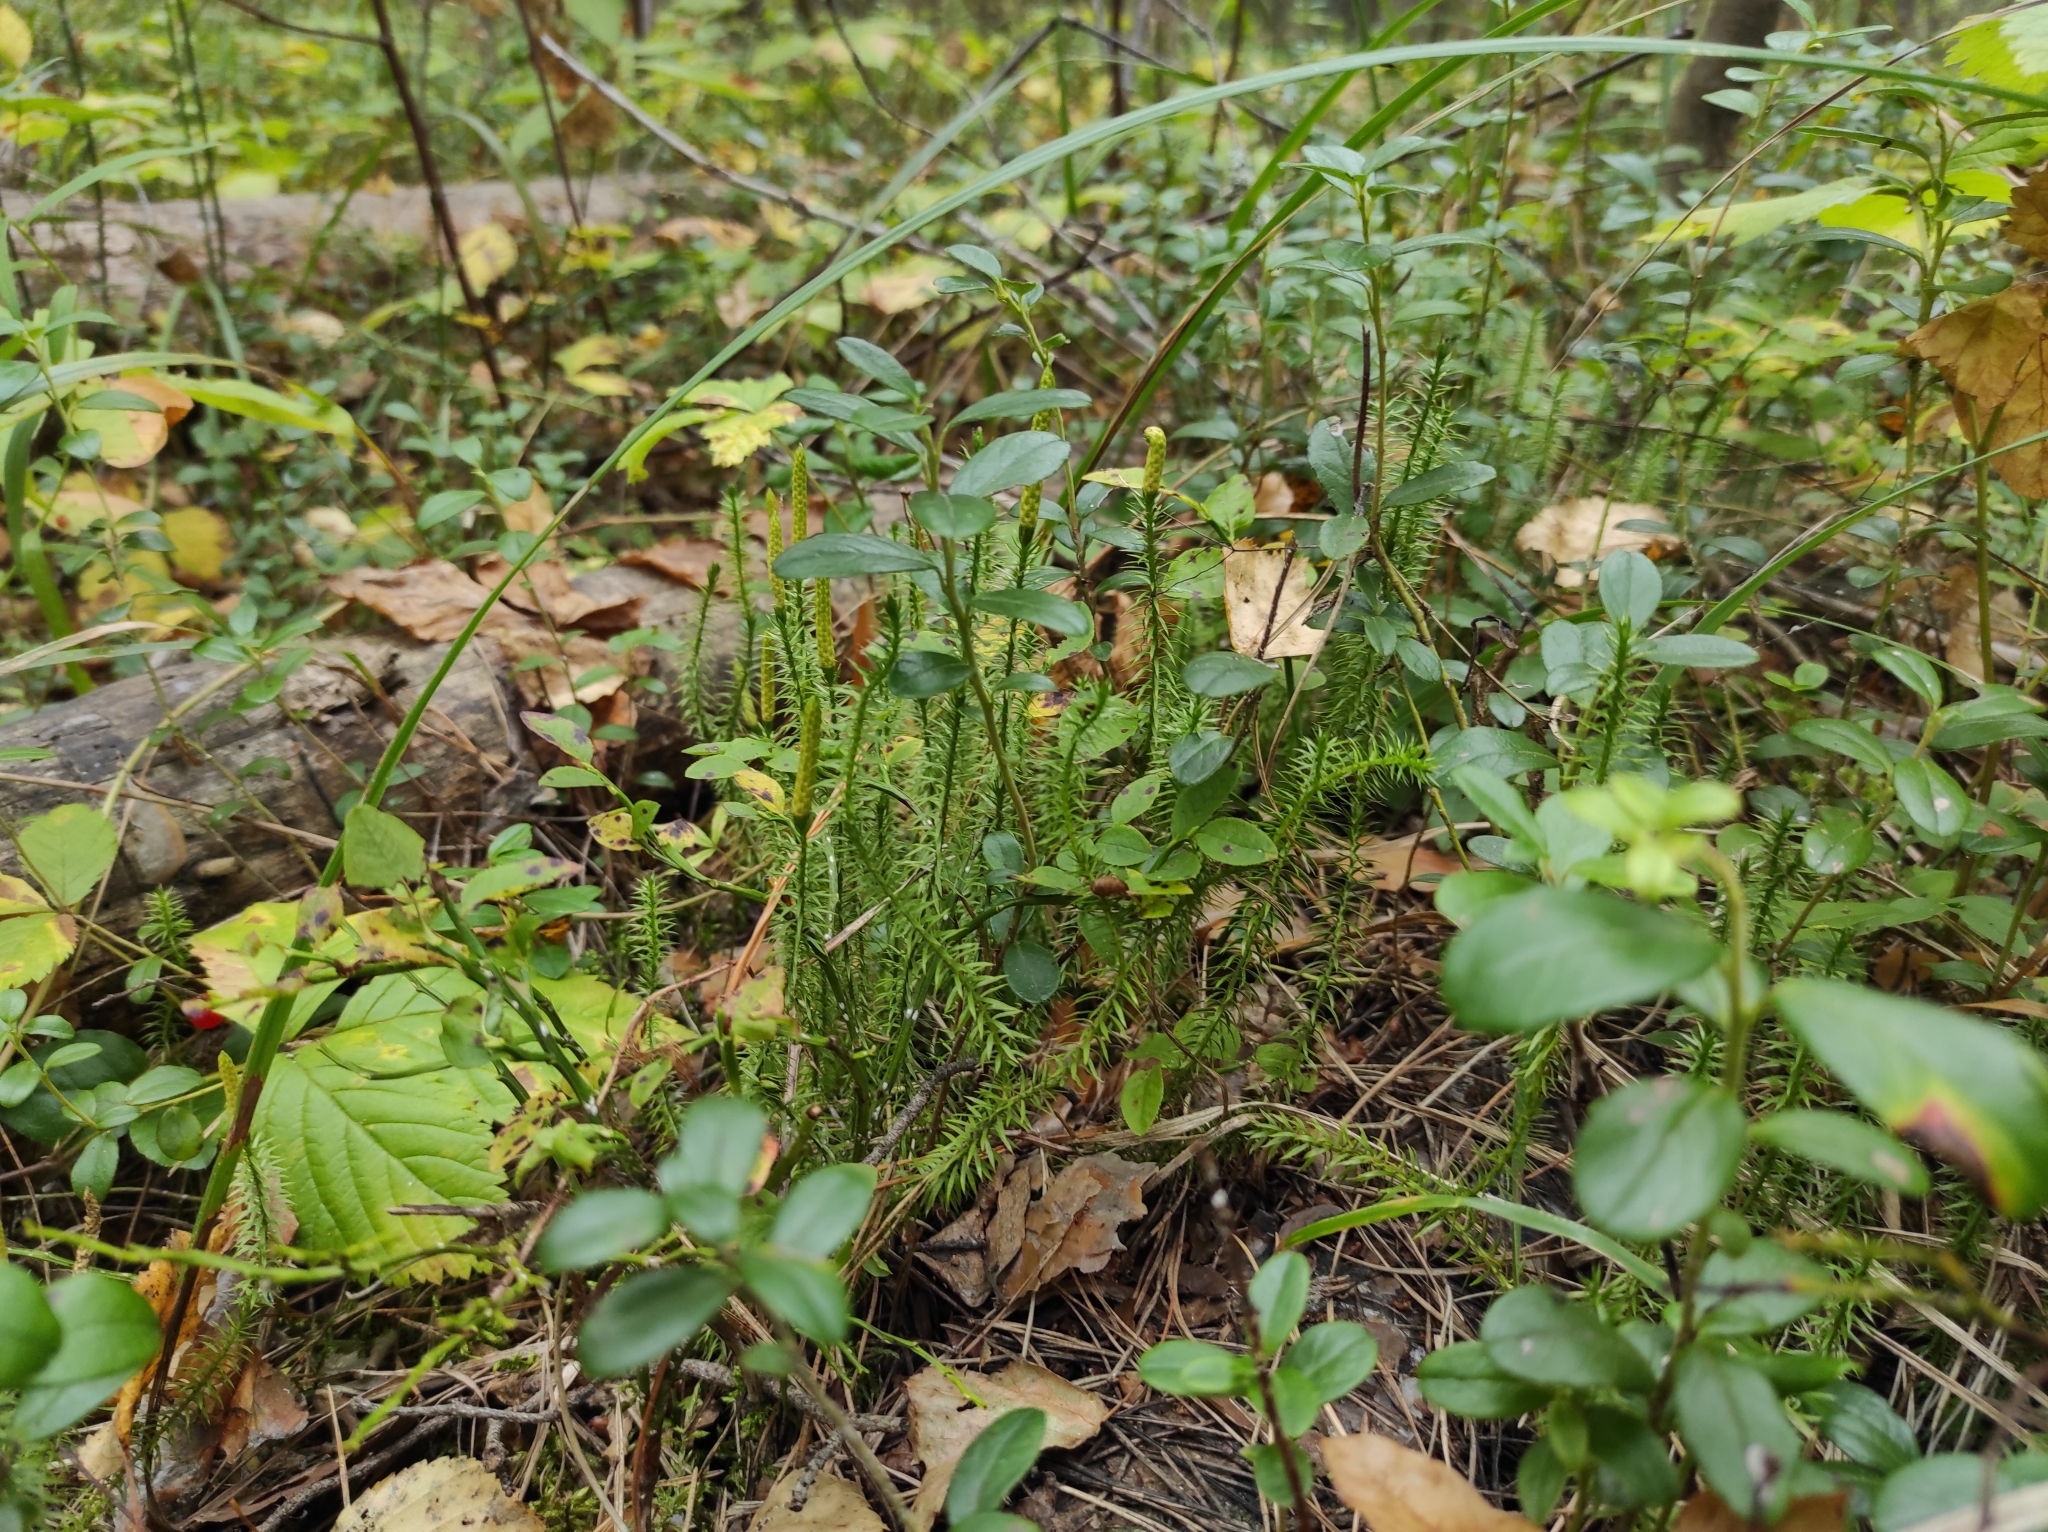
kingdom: Plantae
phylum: Tracheophyta
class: Lycopodiopsida
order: Lycopodiales
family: Lycopodiaceae
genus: Spinulum
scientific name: Spinulum annotinum
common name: Interrupted club-moss
